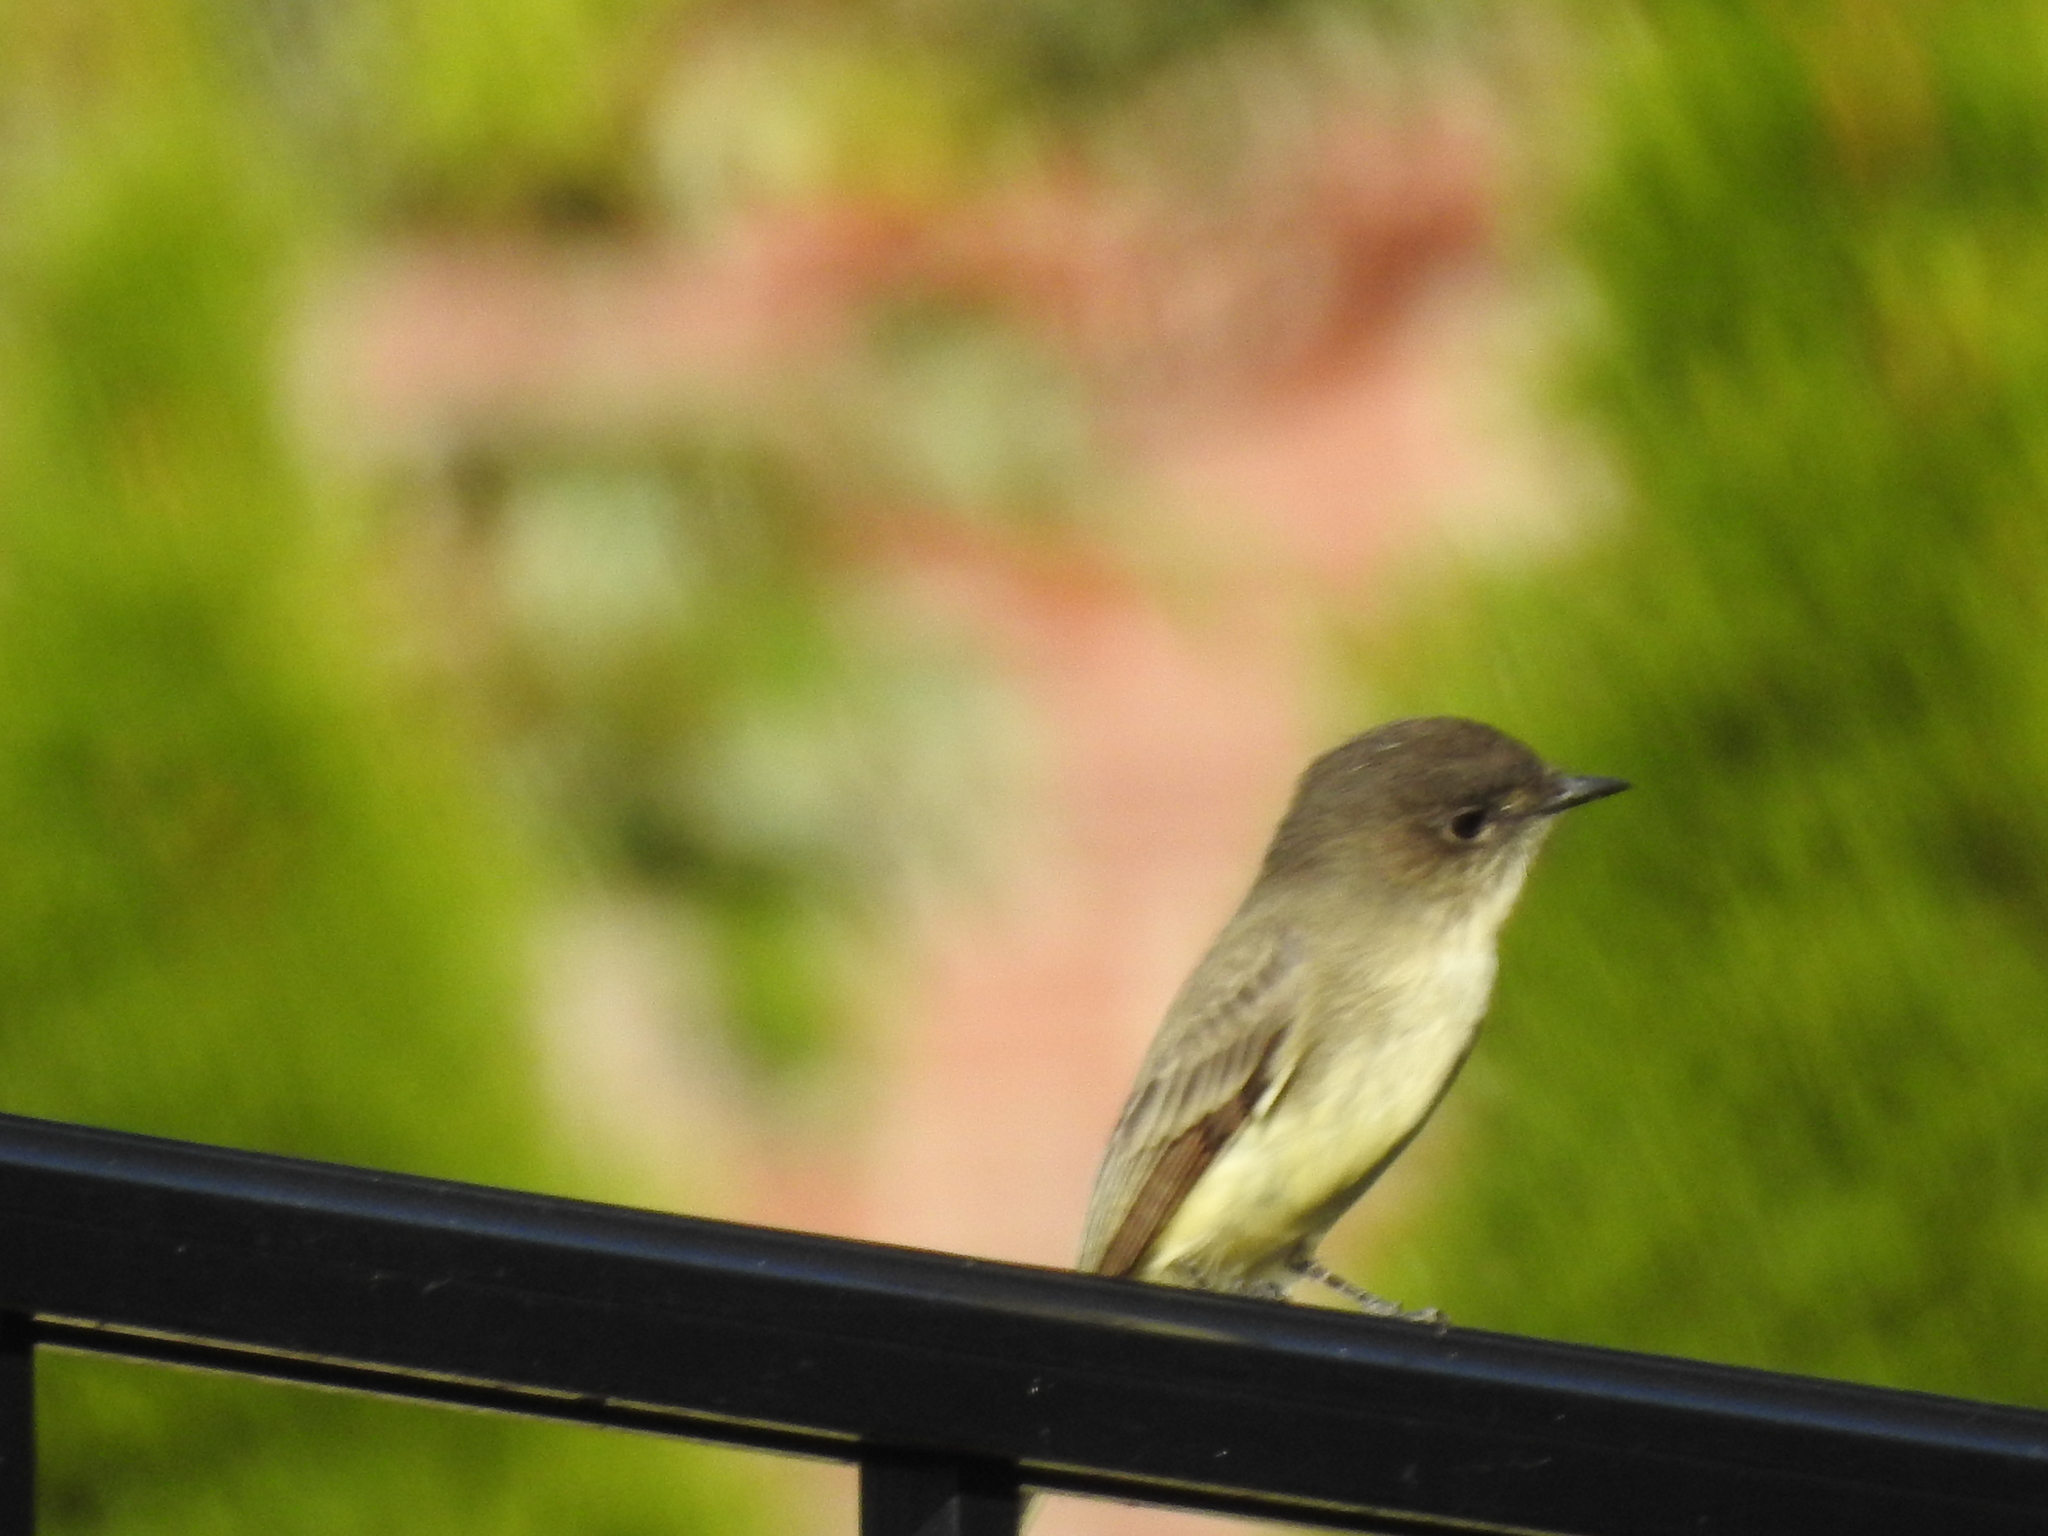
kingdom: Animalia
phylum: Chordata
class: Aves
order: Passeriformes
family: Tyrannidae
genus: Sayornis
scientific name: Sayornis phoebe
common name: Eastern phoebe
